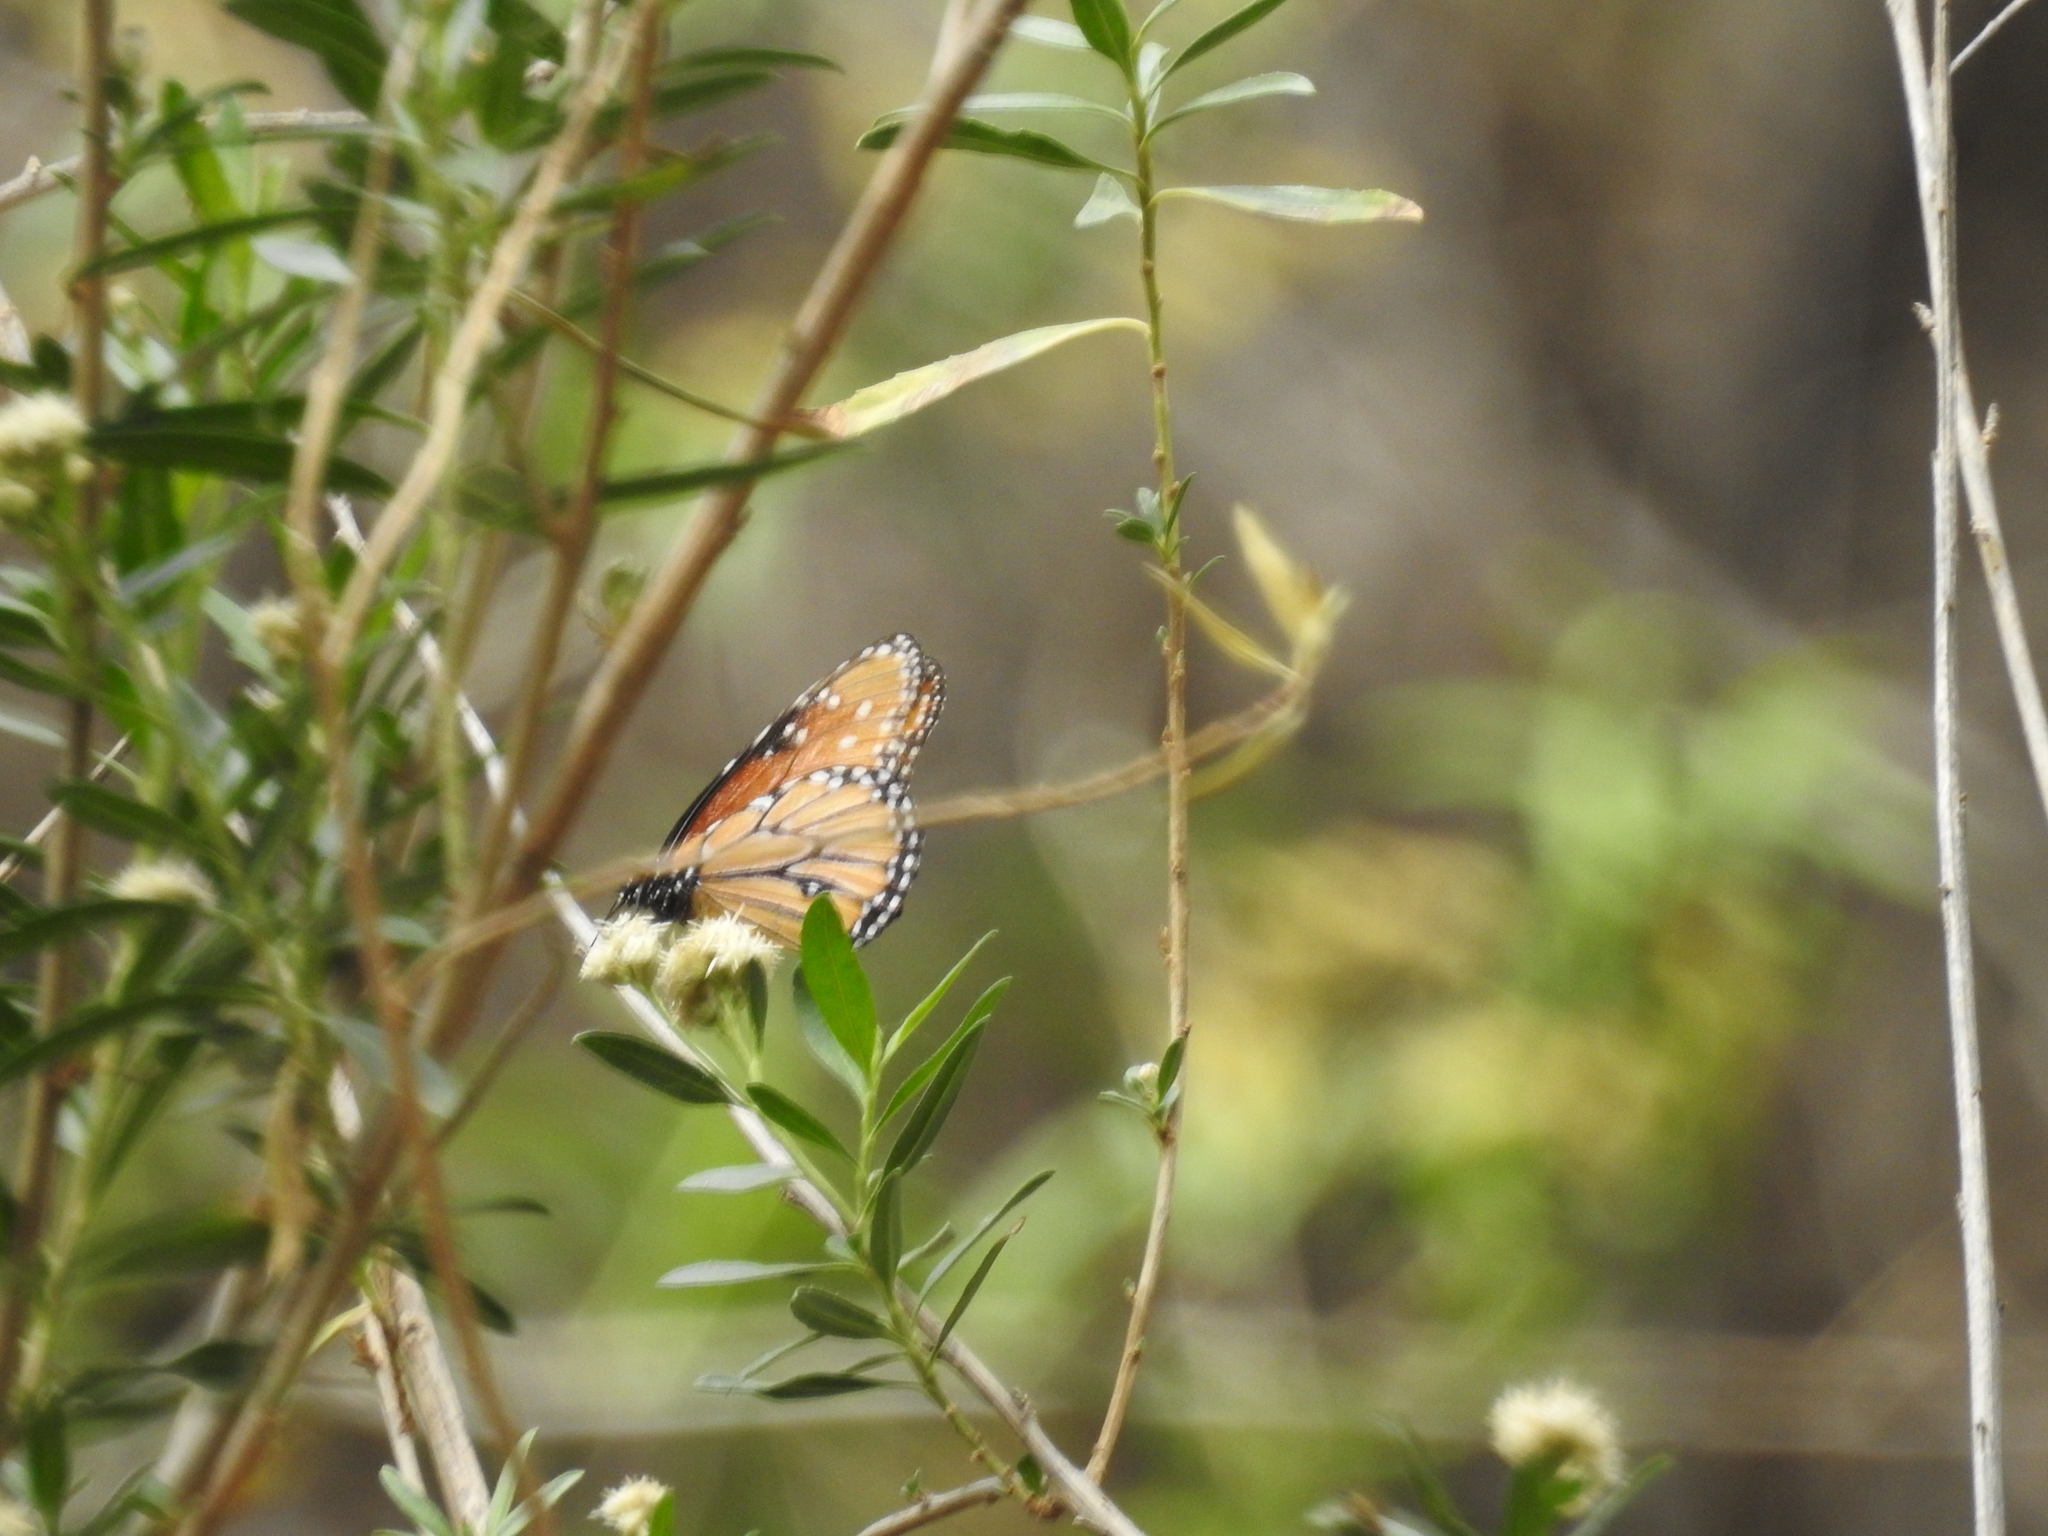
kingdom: Animalia
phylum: Arthropoda
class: Insecta
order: Lepidoptera
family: Nymphalidae
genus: Danaus
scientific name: Danaus gilippus
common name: Queen
